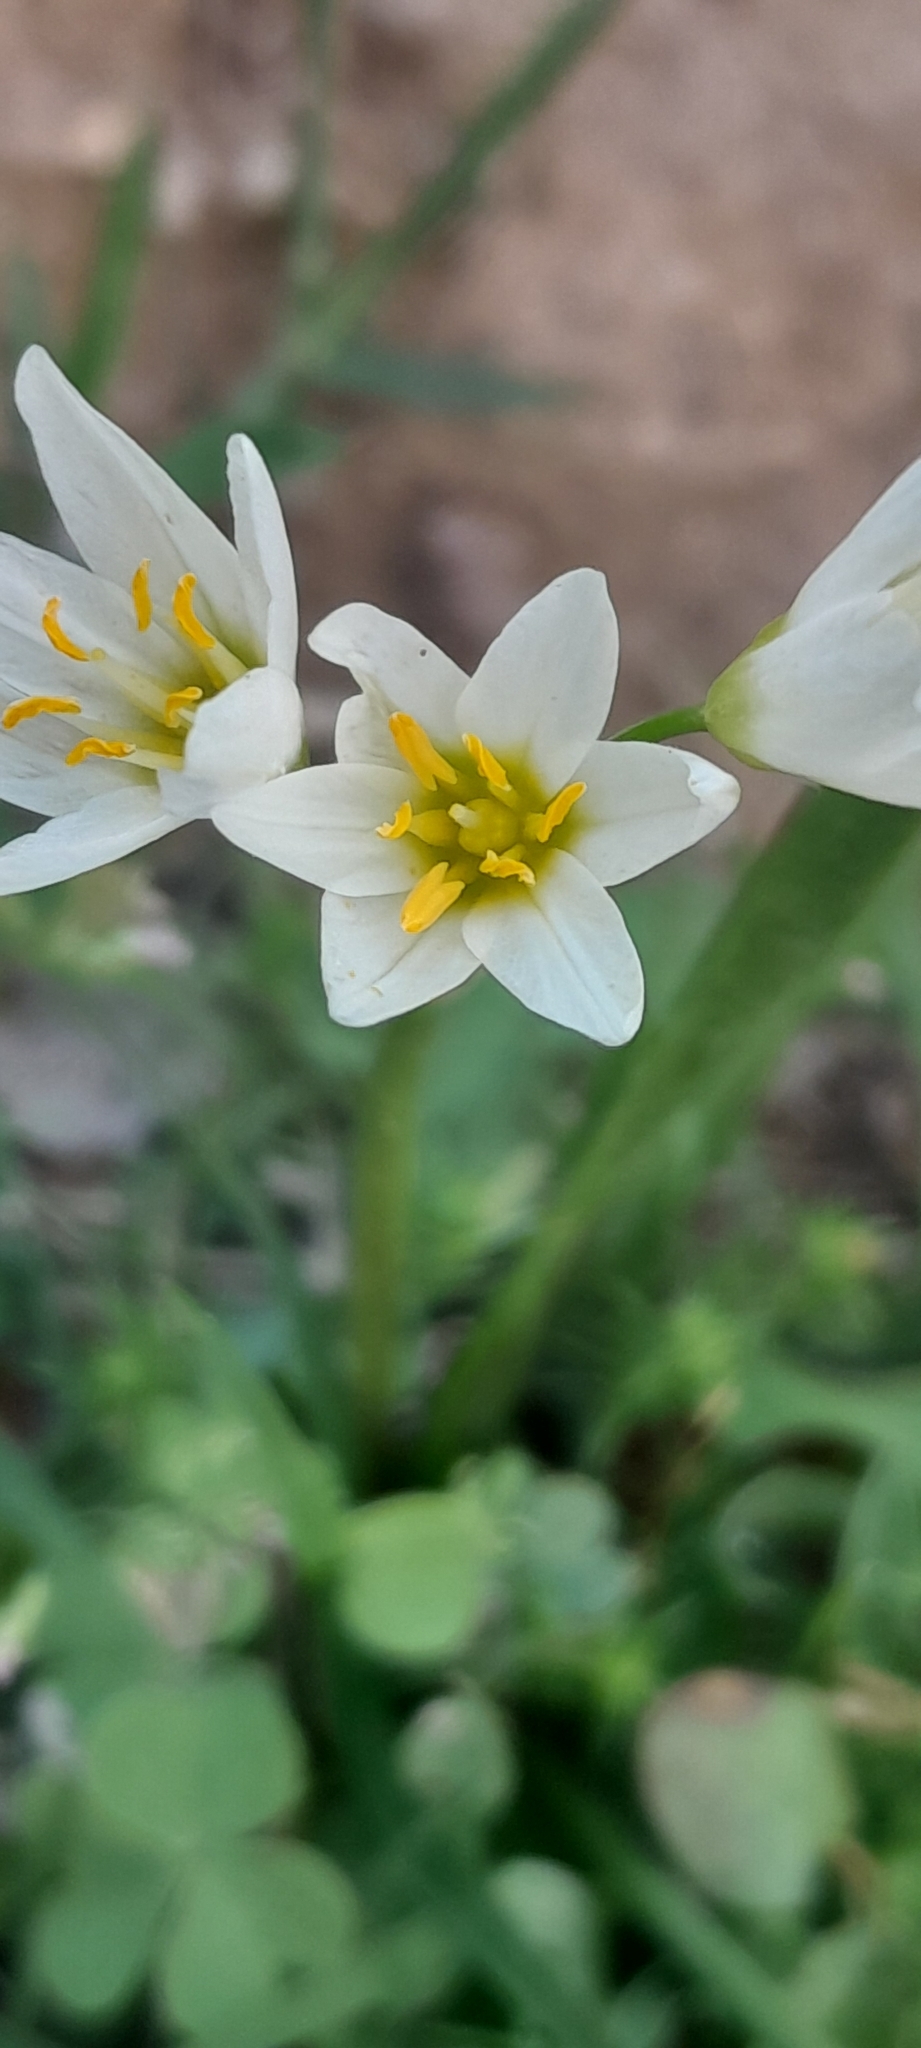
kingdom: Plantae
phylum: Tracheophyta
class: Liliopsida
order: Asparagales
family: Amaryllidaceae
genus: Nothoscordum
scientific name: Nothoscordum bivalve
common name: Crow-poison
